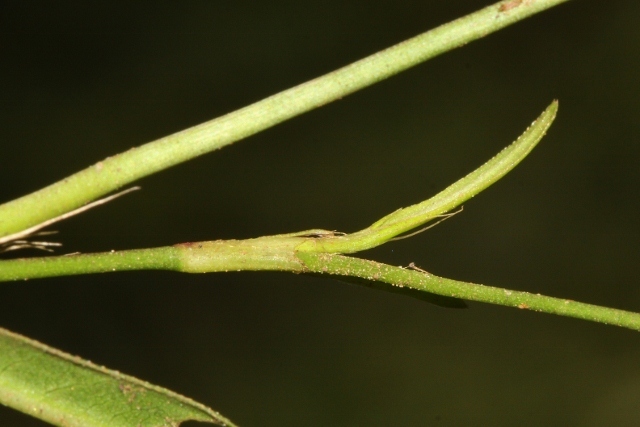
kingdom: Plantae
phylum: Tracheophyta
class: Magnoliopsida
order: Caryophyllales
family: Polygonaceae
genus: Persicaria
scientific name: Persicaria decipiens
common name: Willow-weed
